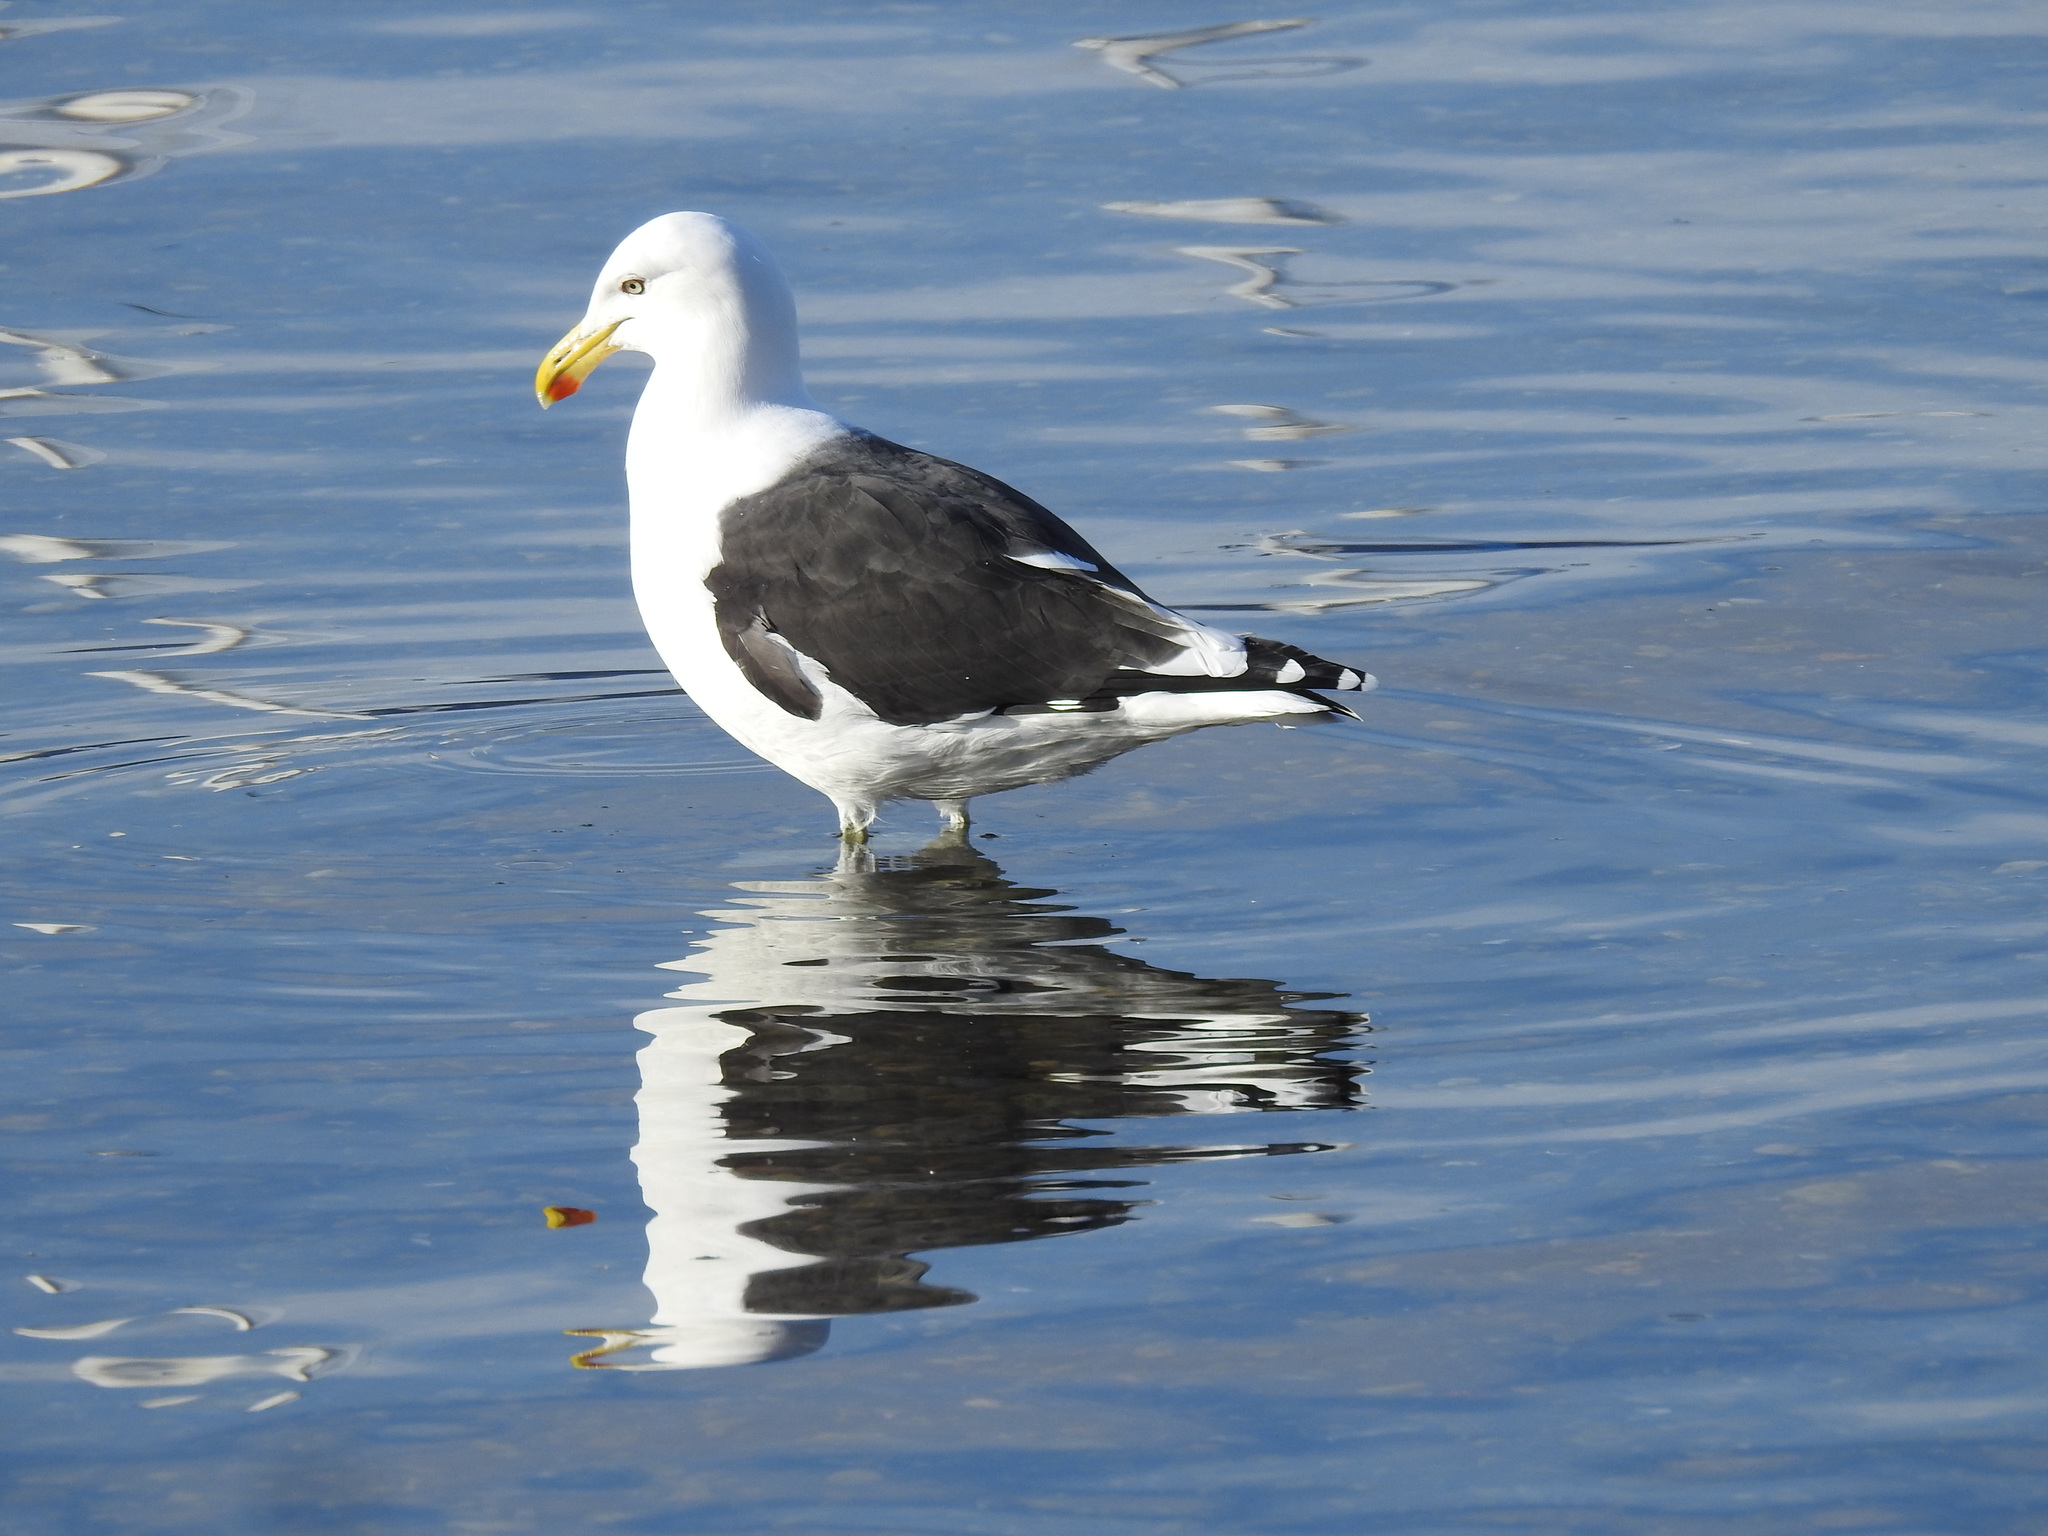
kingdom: Animalia
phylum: Chordata
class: Aves
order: Charadriiformes
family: Laridae
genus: Larus
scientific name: Larus dominicanus
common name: Kelp gull
